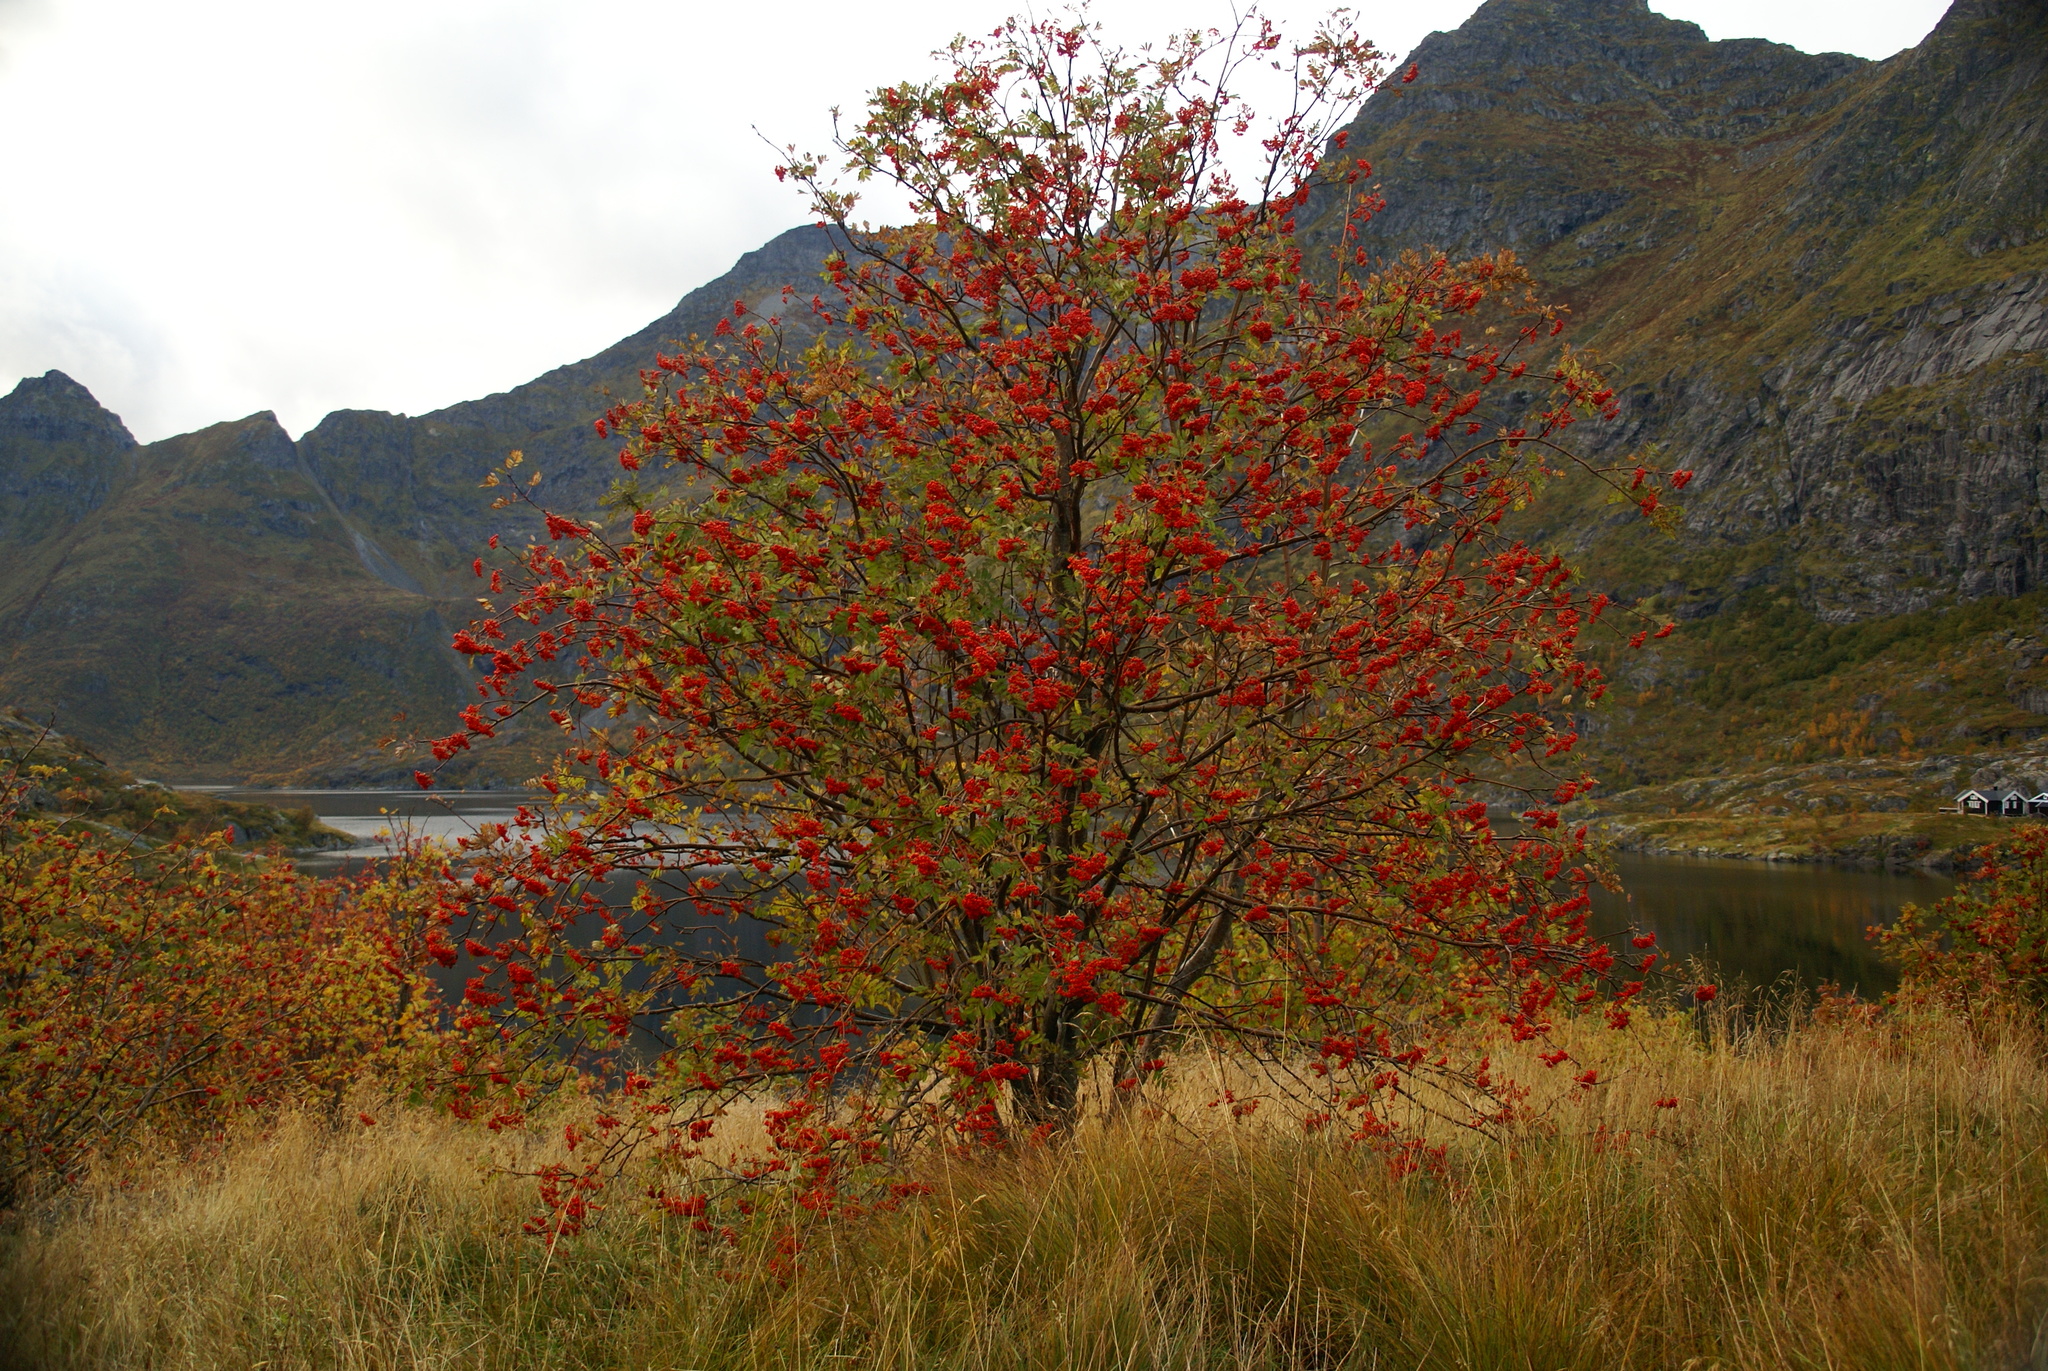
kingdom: Plantae
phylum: Tracheophyta
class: Magnoliopsida
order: Rosales
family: Rosaceae
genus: Sorbus
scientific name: Sorbus aucuparia
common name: Rowan
